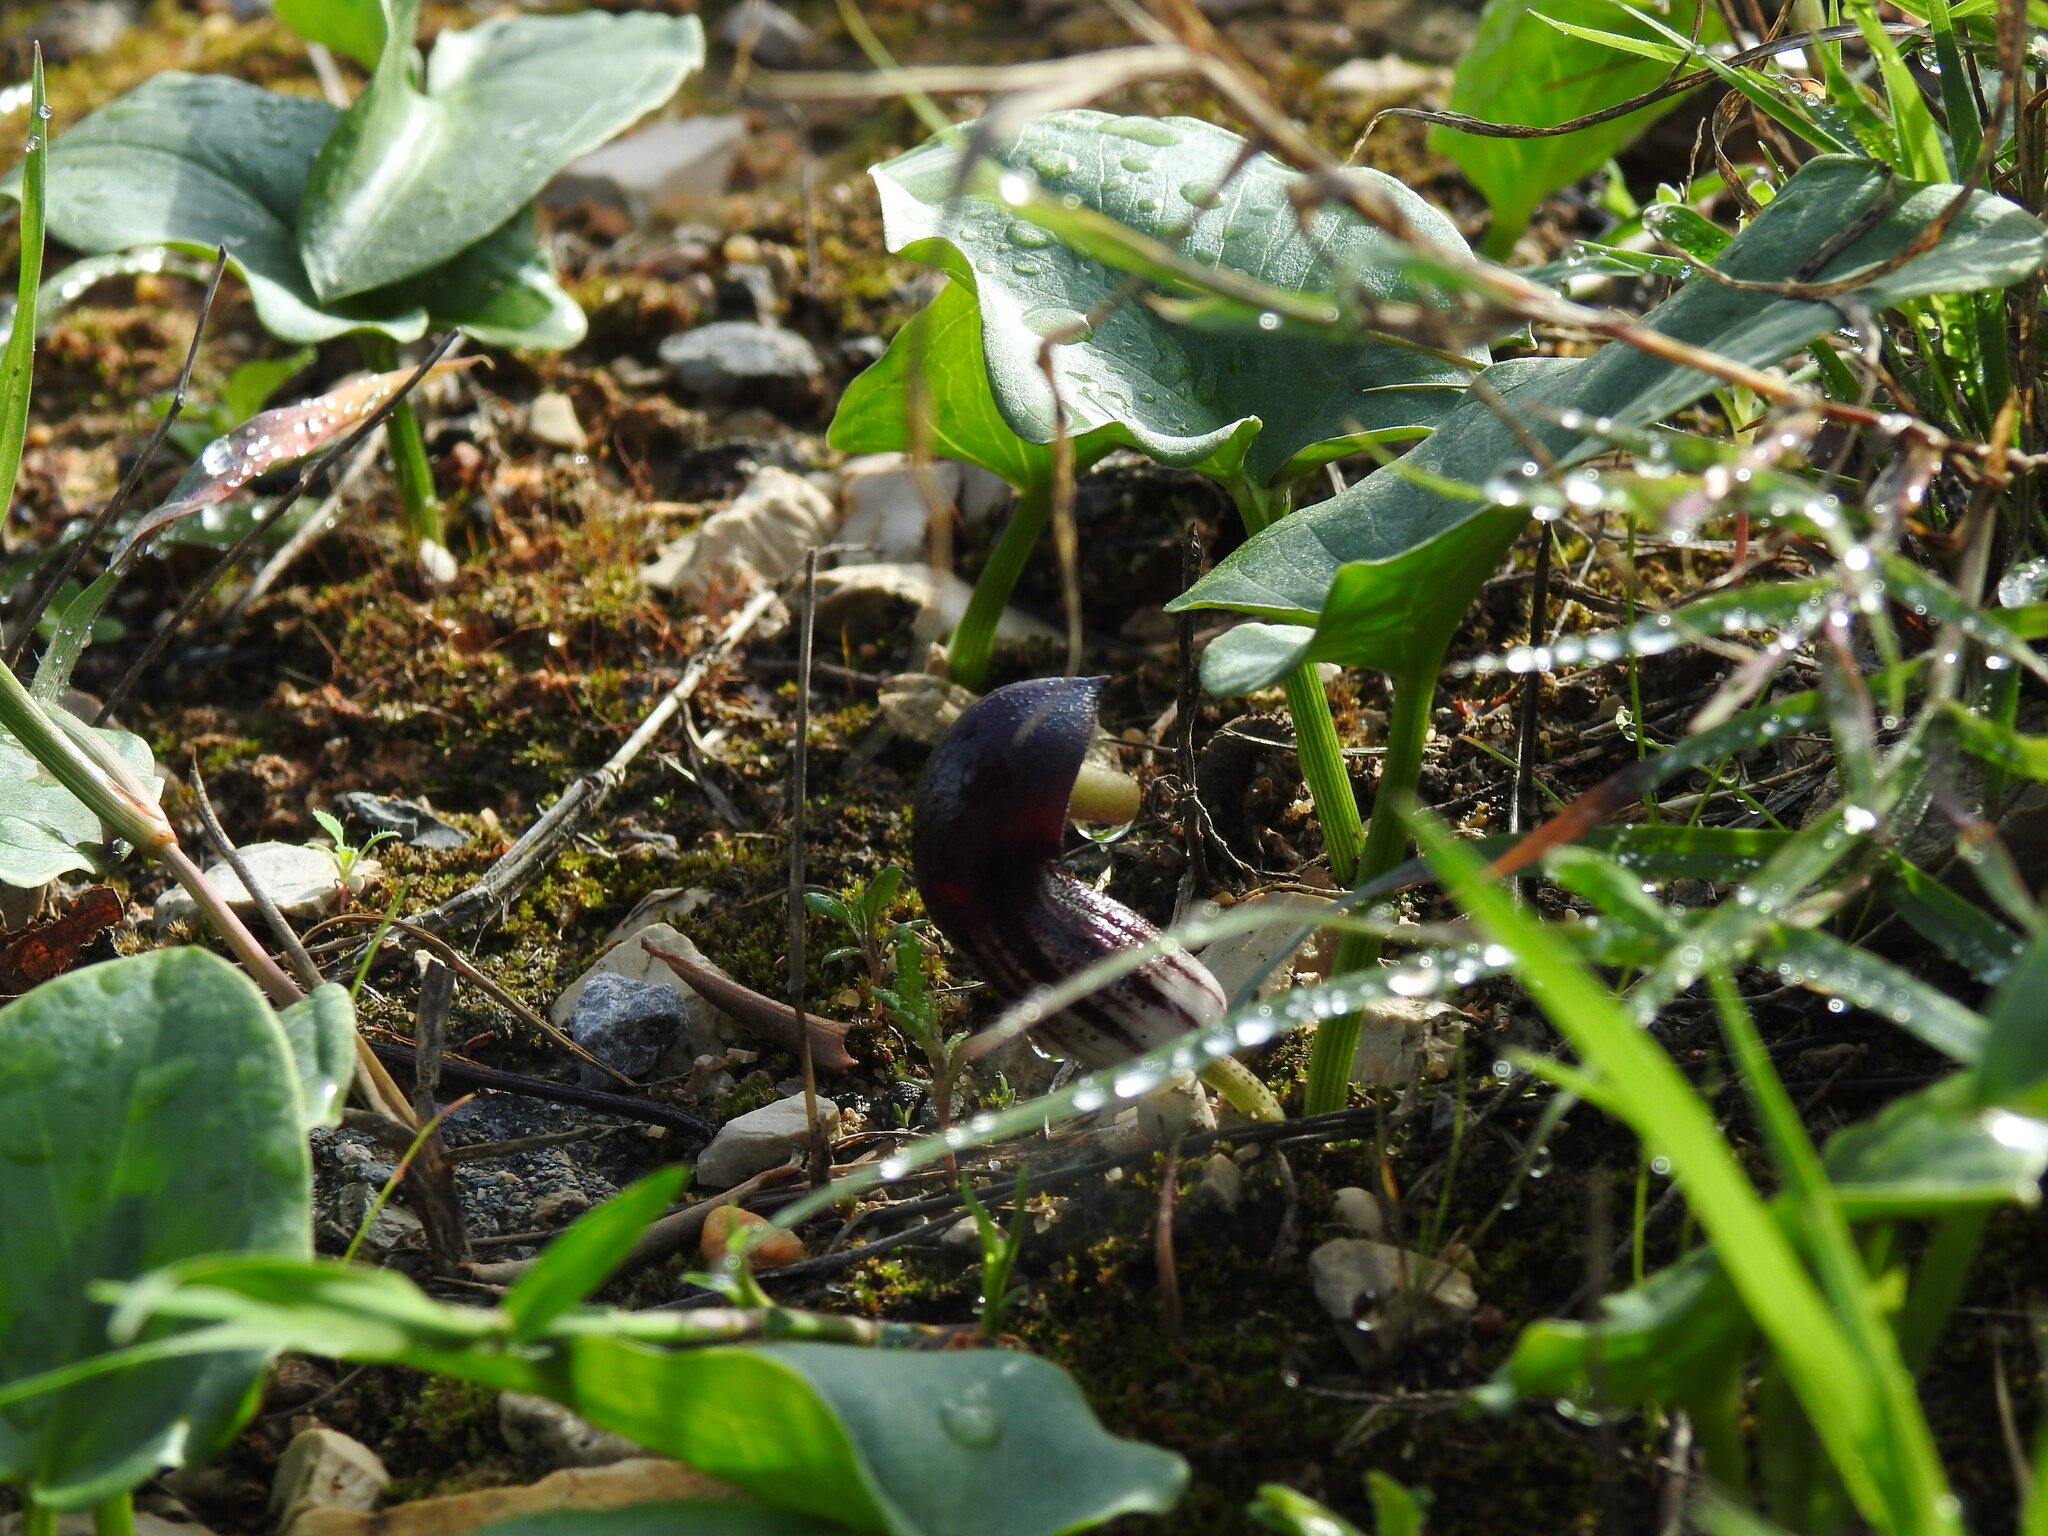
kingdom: Plantae
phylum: Tracheophyta
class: Liliopsida
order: Alismatales
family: Araceae
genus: Arisarum
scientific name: Arisarum simorrhinum
